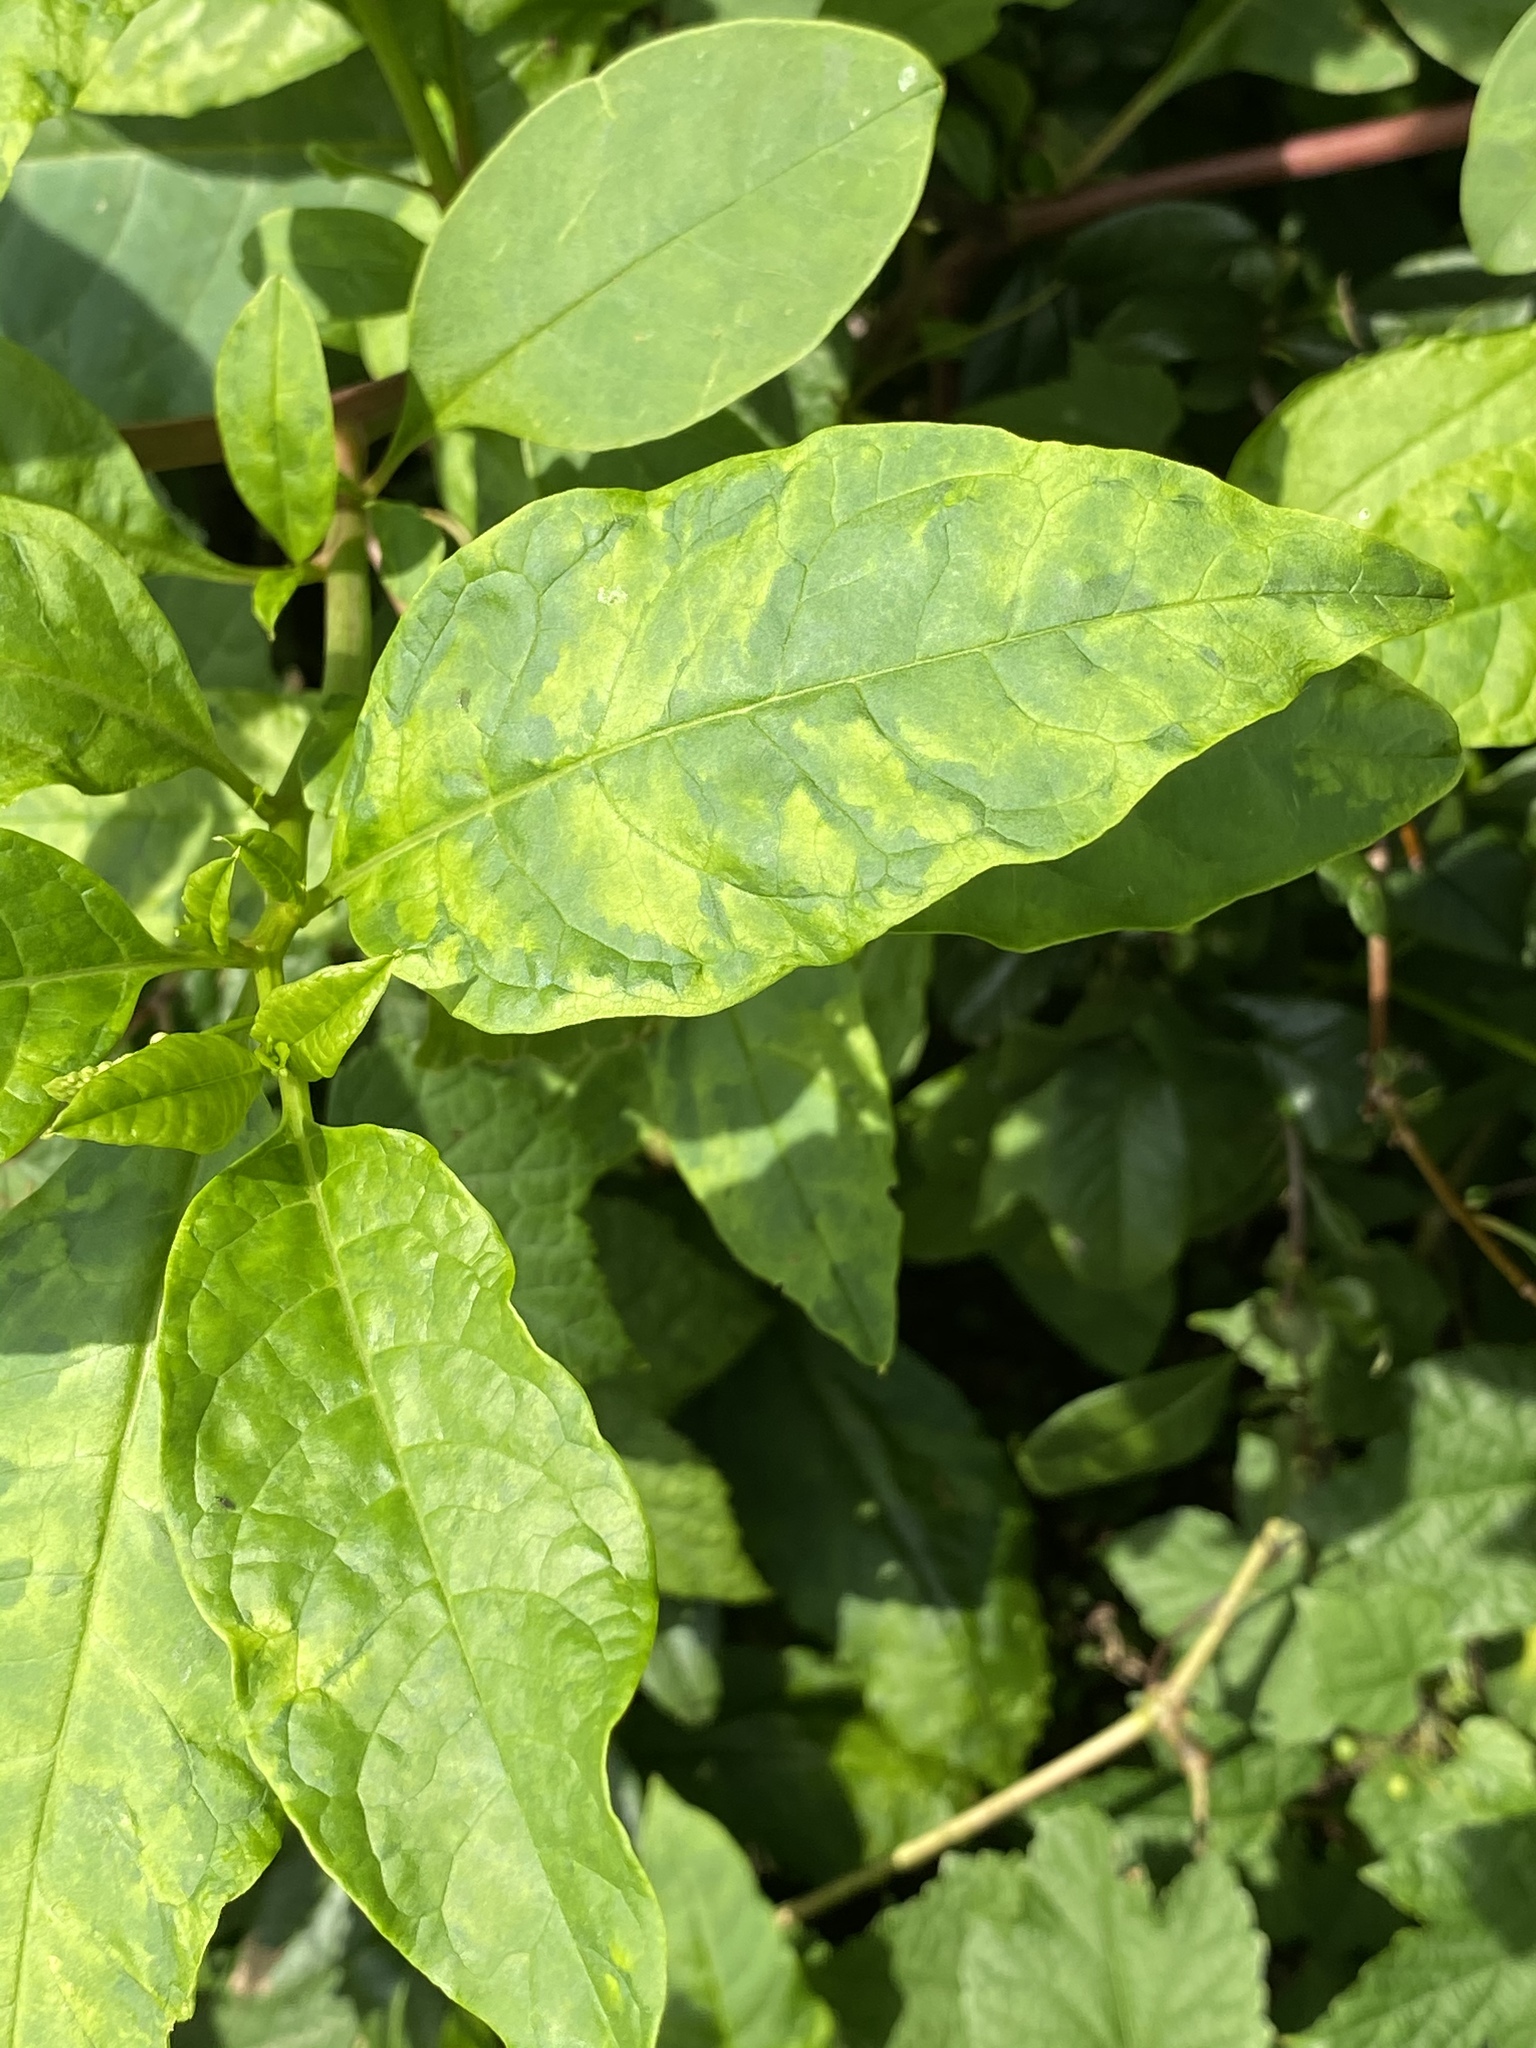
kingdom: Viruses
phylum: Pisuviricota
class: Stelpaviricetes
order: Patatavirales
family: Potyviridae
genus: Potyvirus
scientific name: Potyvirus Pokeweed mosaic virus
